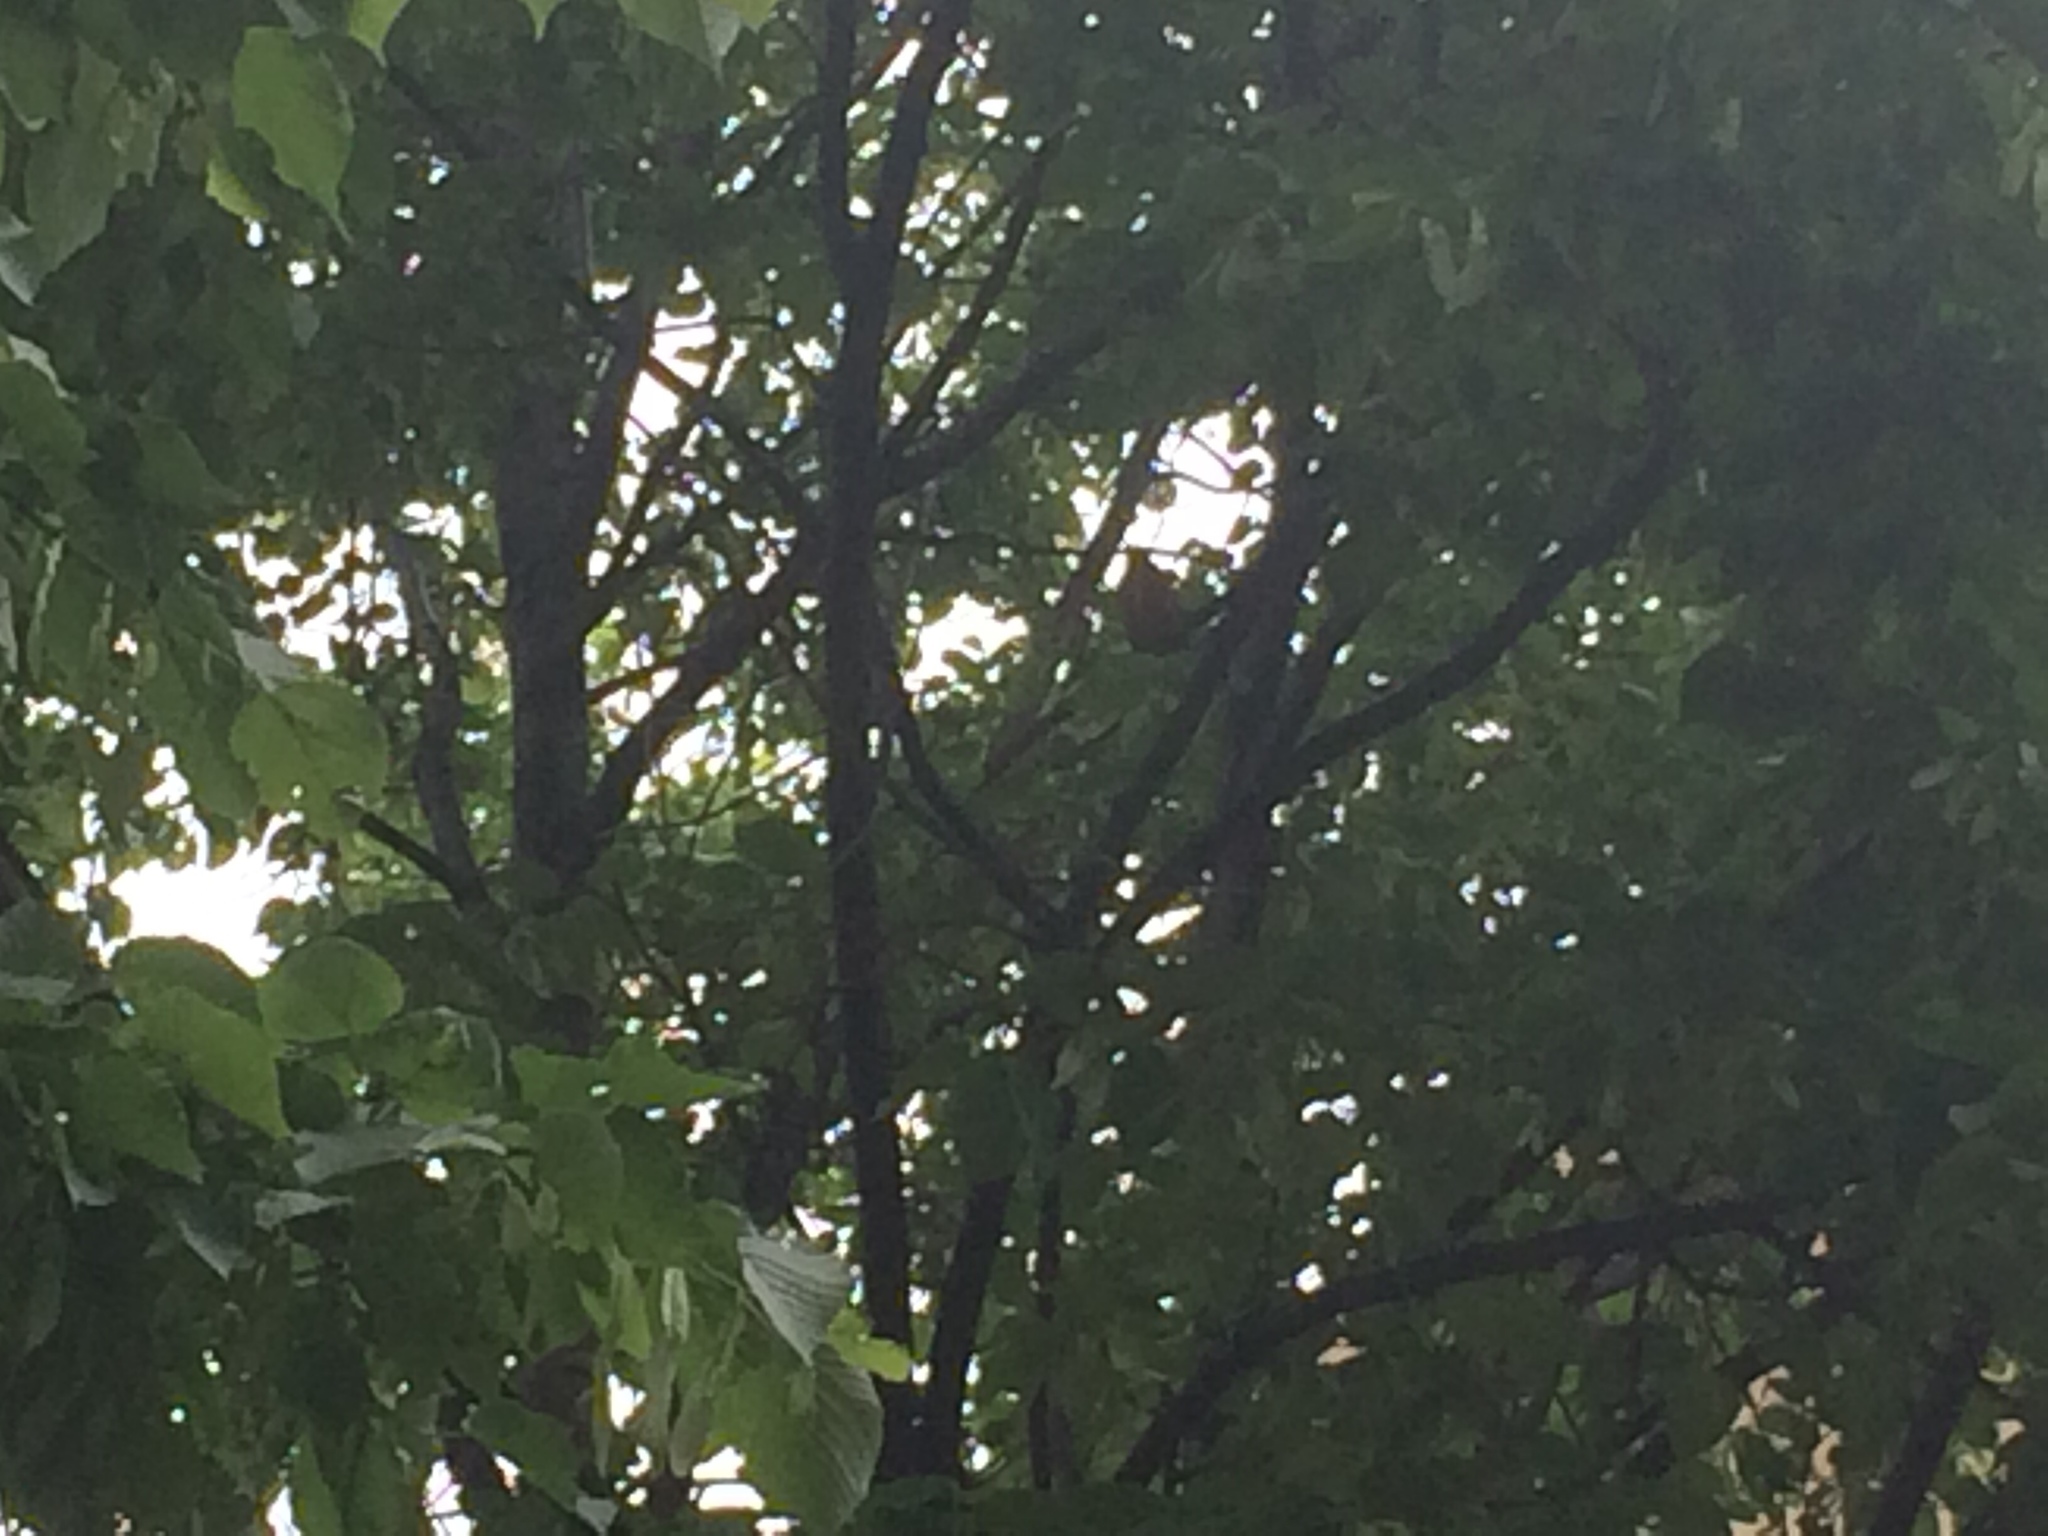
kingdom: Animalia
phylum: Chordata
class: Aves
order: Passeriformes
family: Turdidae
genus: Turdus
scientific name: Turdus migratorius
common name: American robin
